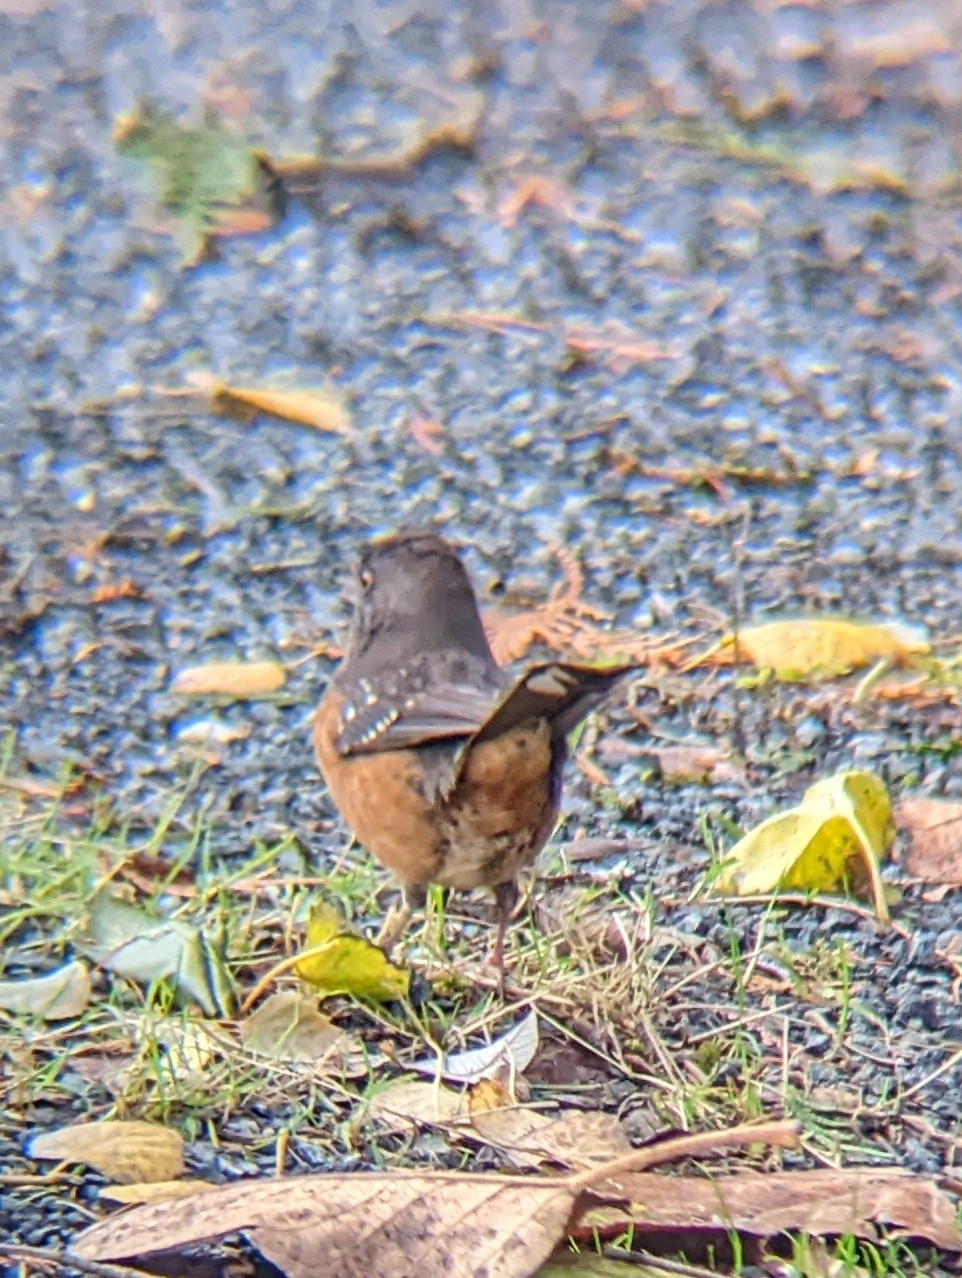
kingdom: Animalia
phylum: Chordata
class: Aves
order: Passeriformes
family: Passerellidae
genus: Pipilo
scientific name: Pipilo maculatus
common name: Spotted towhee
